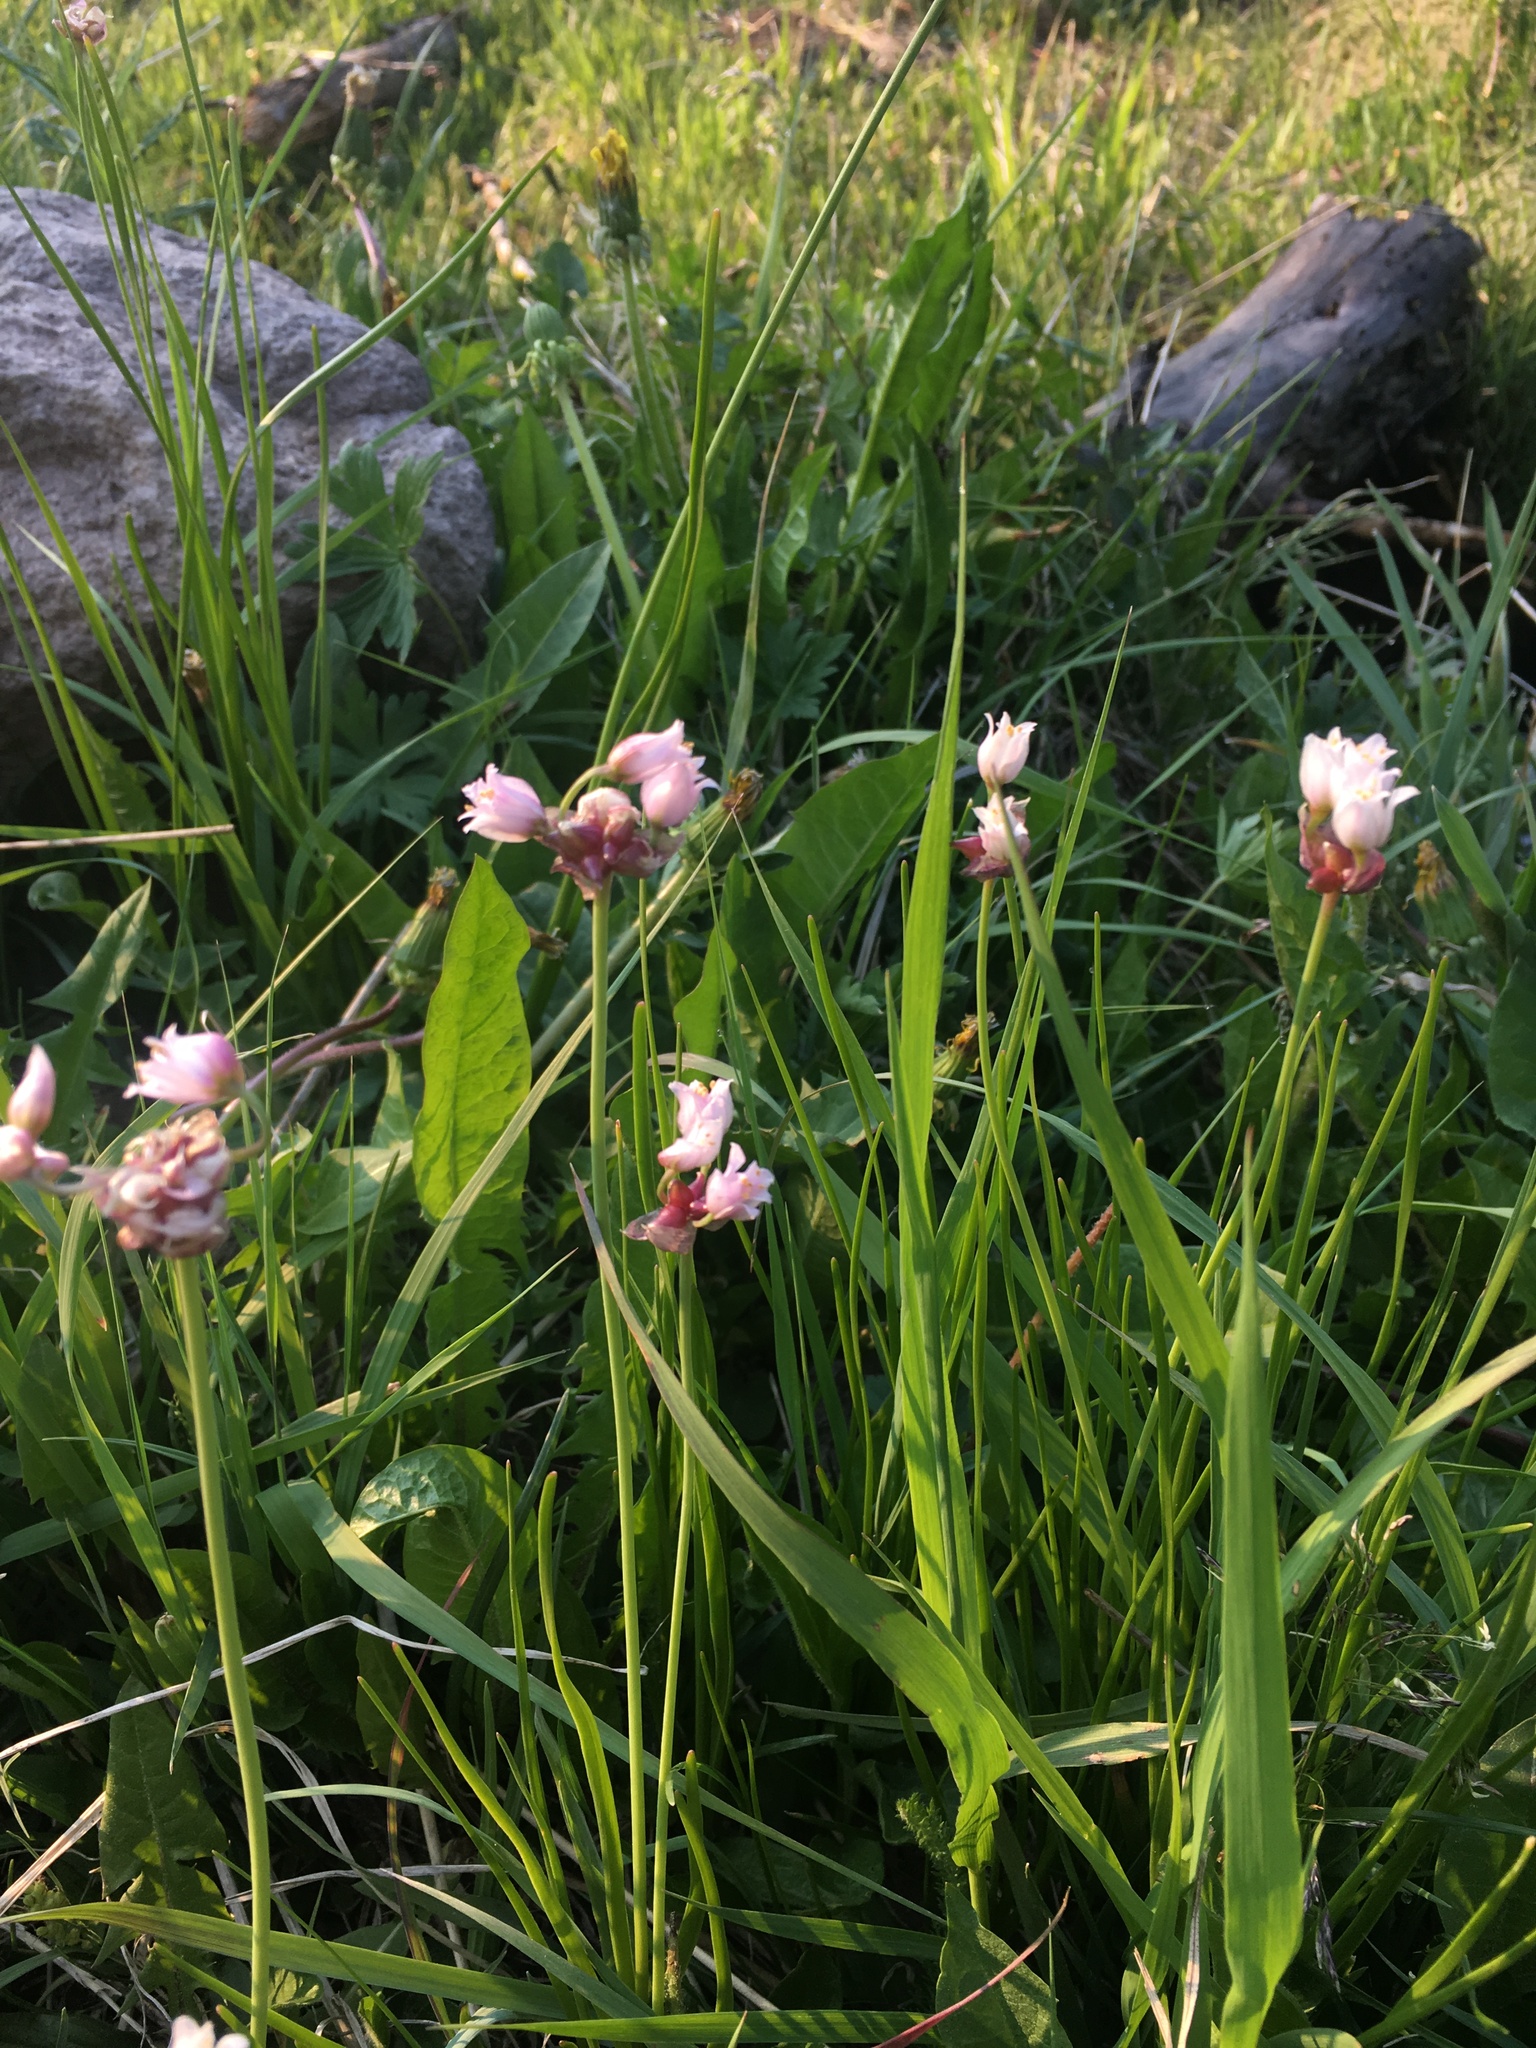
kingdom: Plantae
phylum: Tracheophyta
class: Liliopsida
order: Asparagales
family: Amaryllidaceae
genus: Allium
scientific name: Allium geyeri
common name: Geyer's onion
